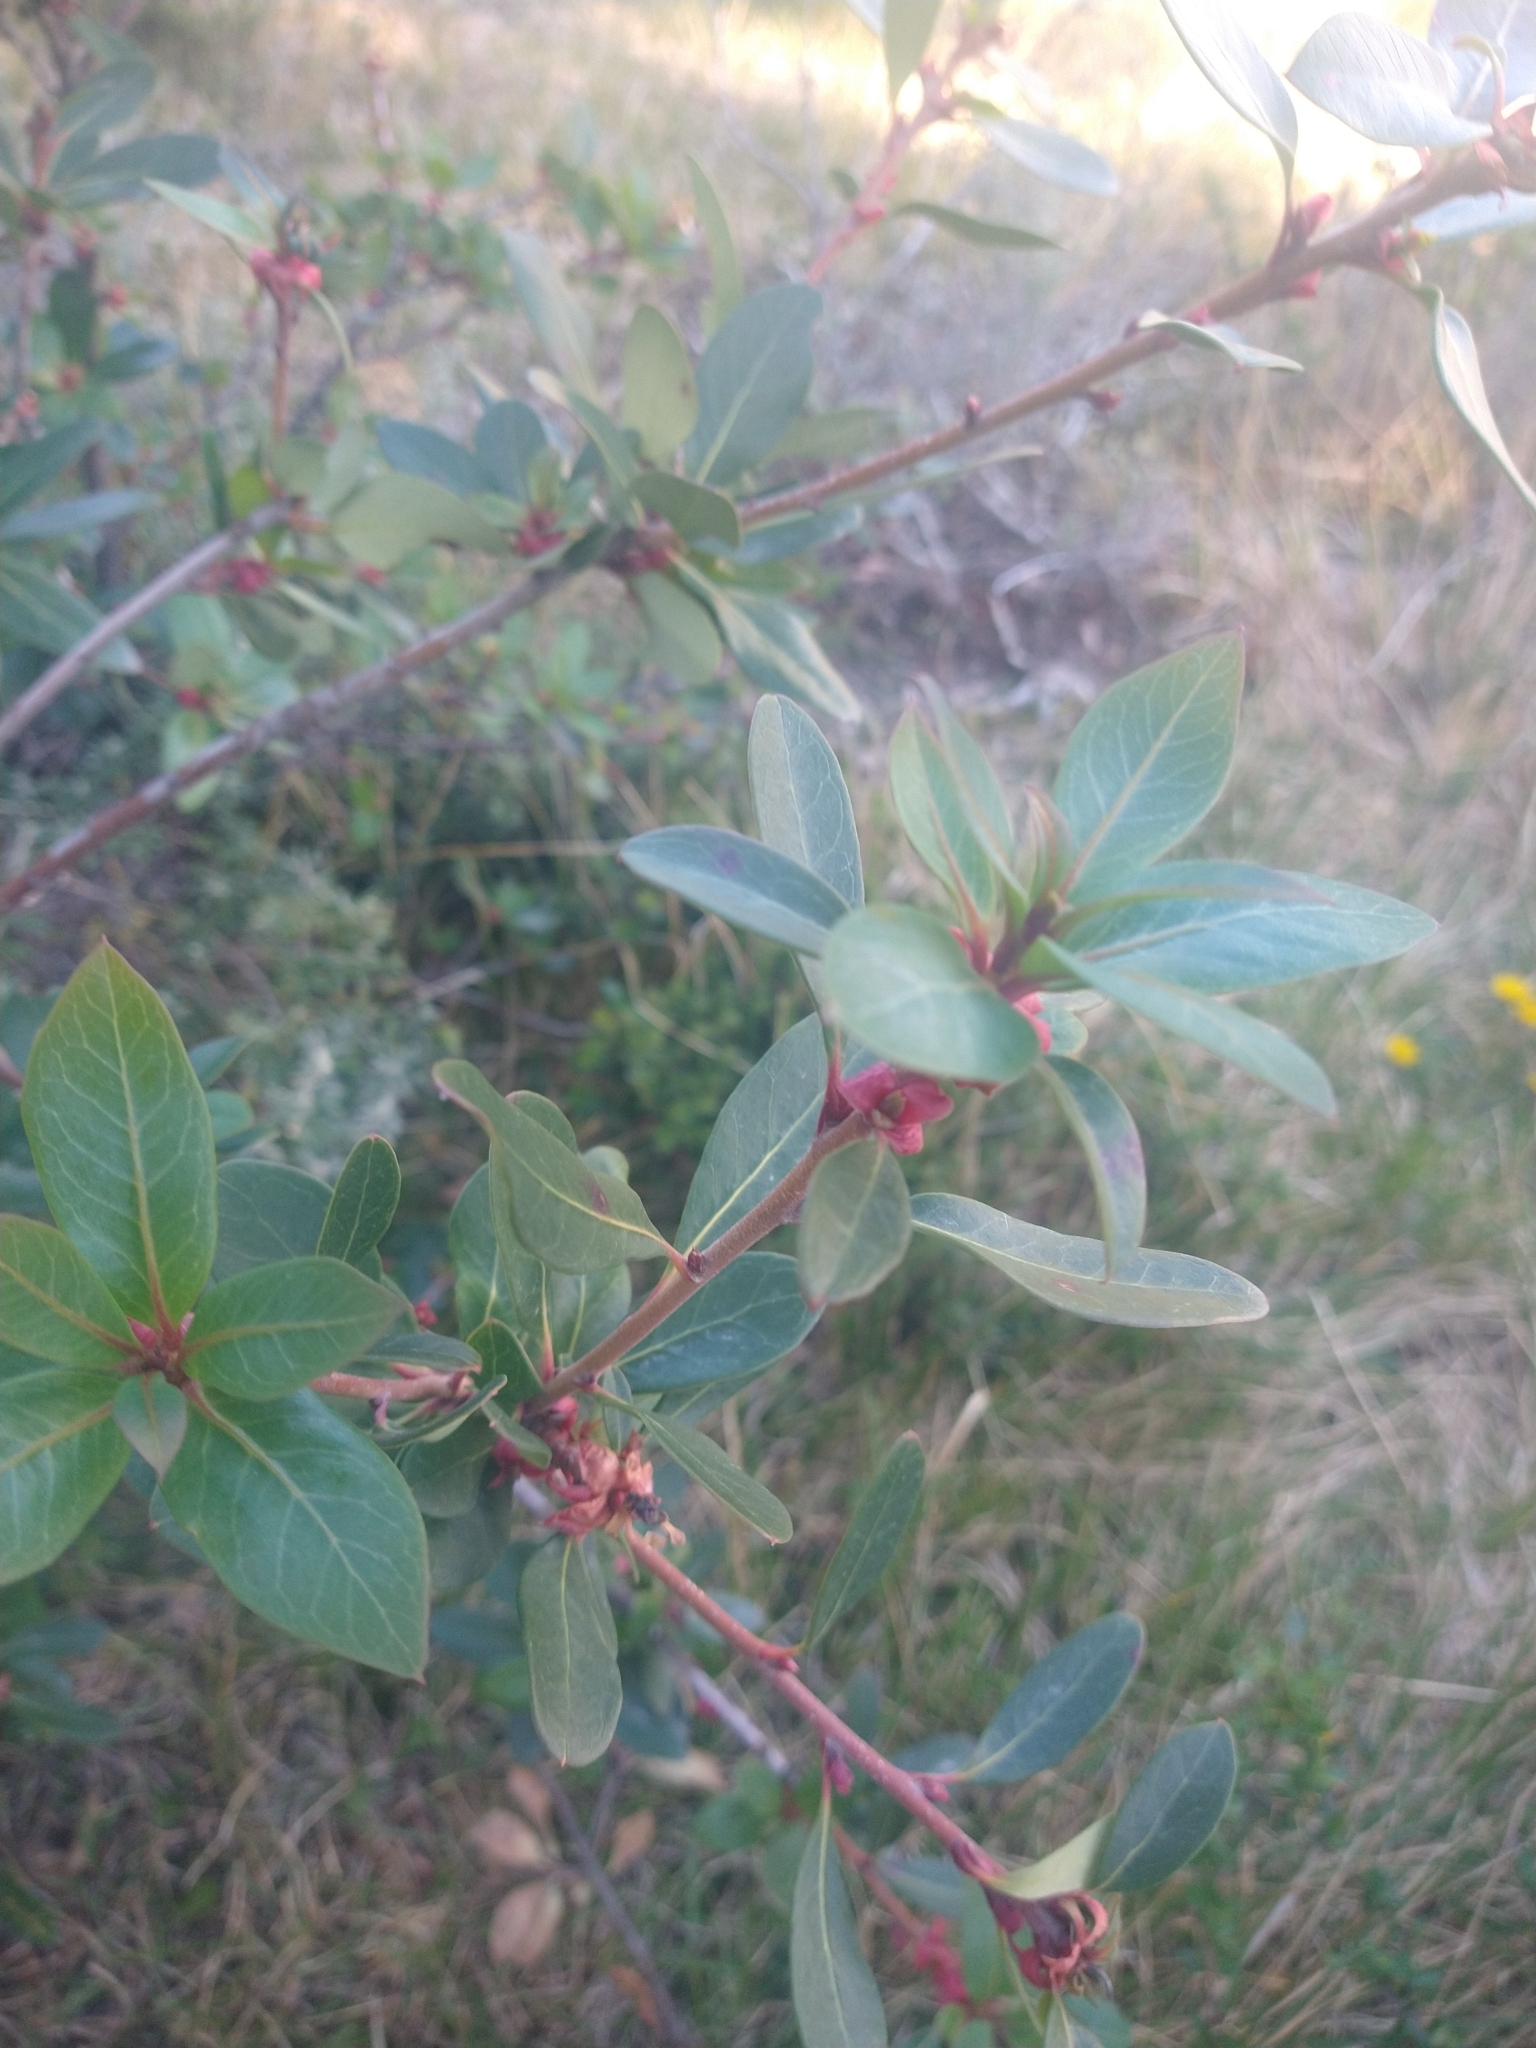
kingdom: Plantae
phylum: Tracheophyta
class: Magnoliopsida
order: Proteales
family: Proteaceae
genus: Embothrium
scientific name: Embothrium coccineum
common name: Chilean firebush
